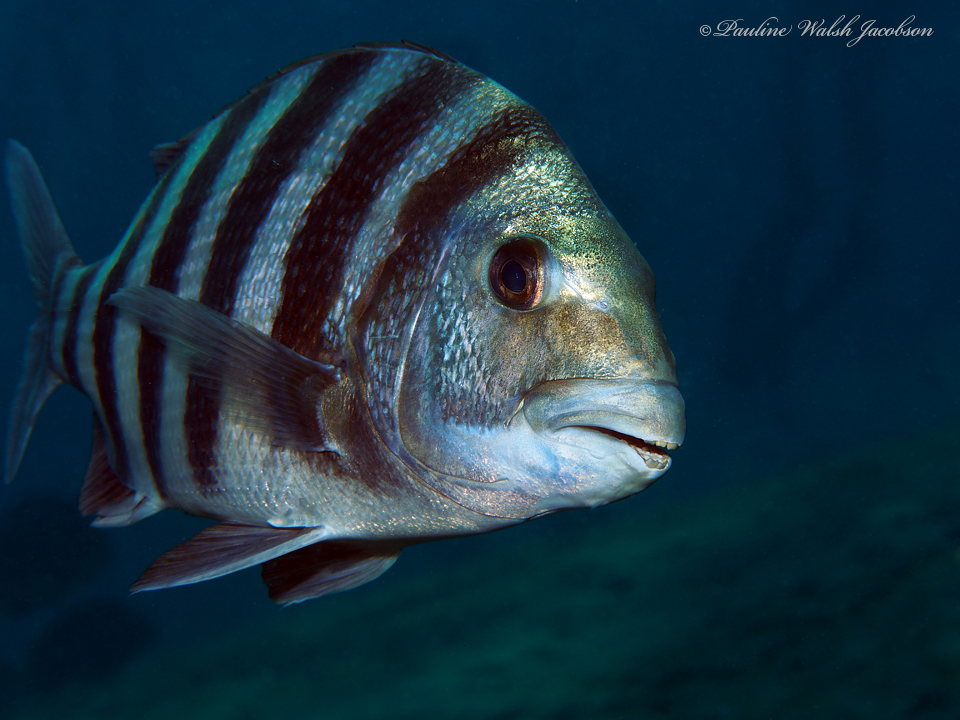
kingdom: Animalia
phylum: Chordata
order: Perciformes
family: Sparidae
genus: Archosargus
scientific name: Archosargus probatocephalus
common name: Sheepshead
